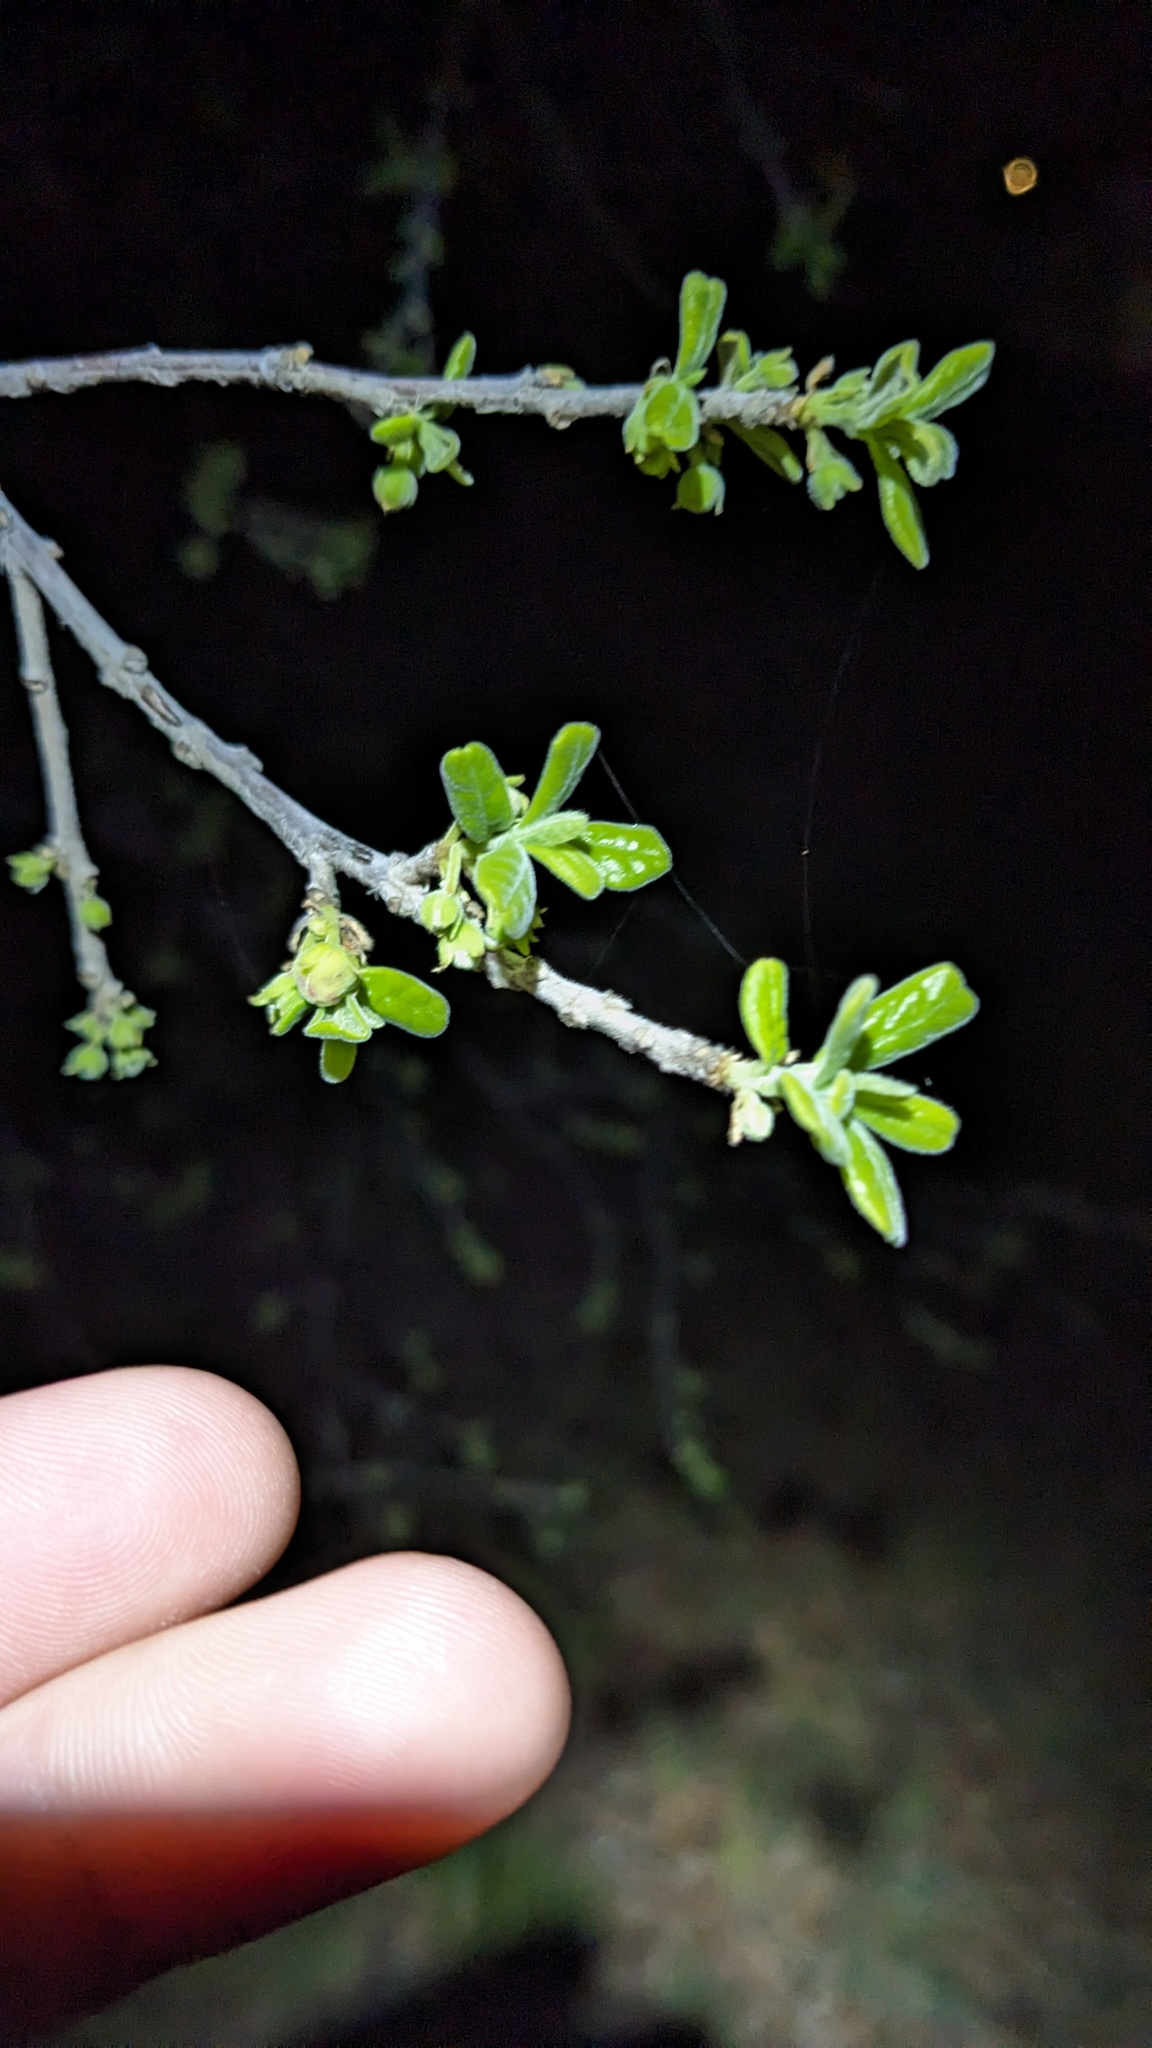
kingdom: Plantae
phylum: Tracheophyta
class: Magnoliopsida
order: Ericales
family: Ebenaceae
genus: Diospyros
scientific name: Diospyros texana
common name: Texas persimmon
